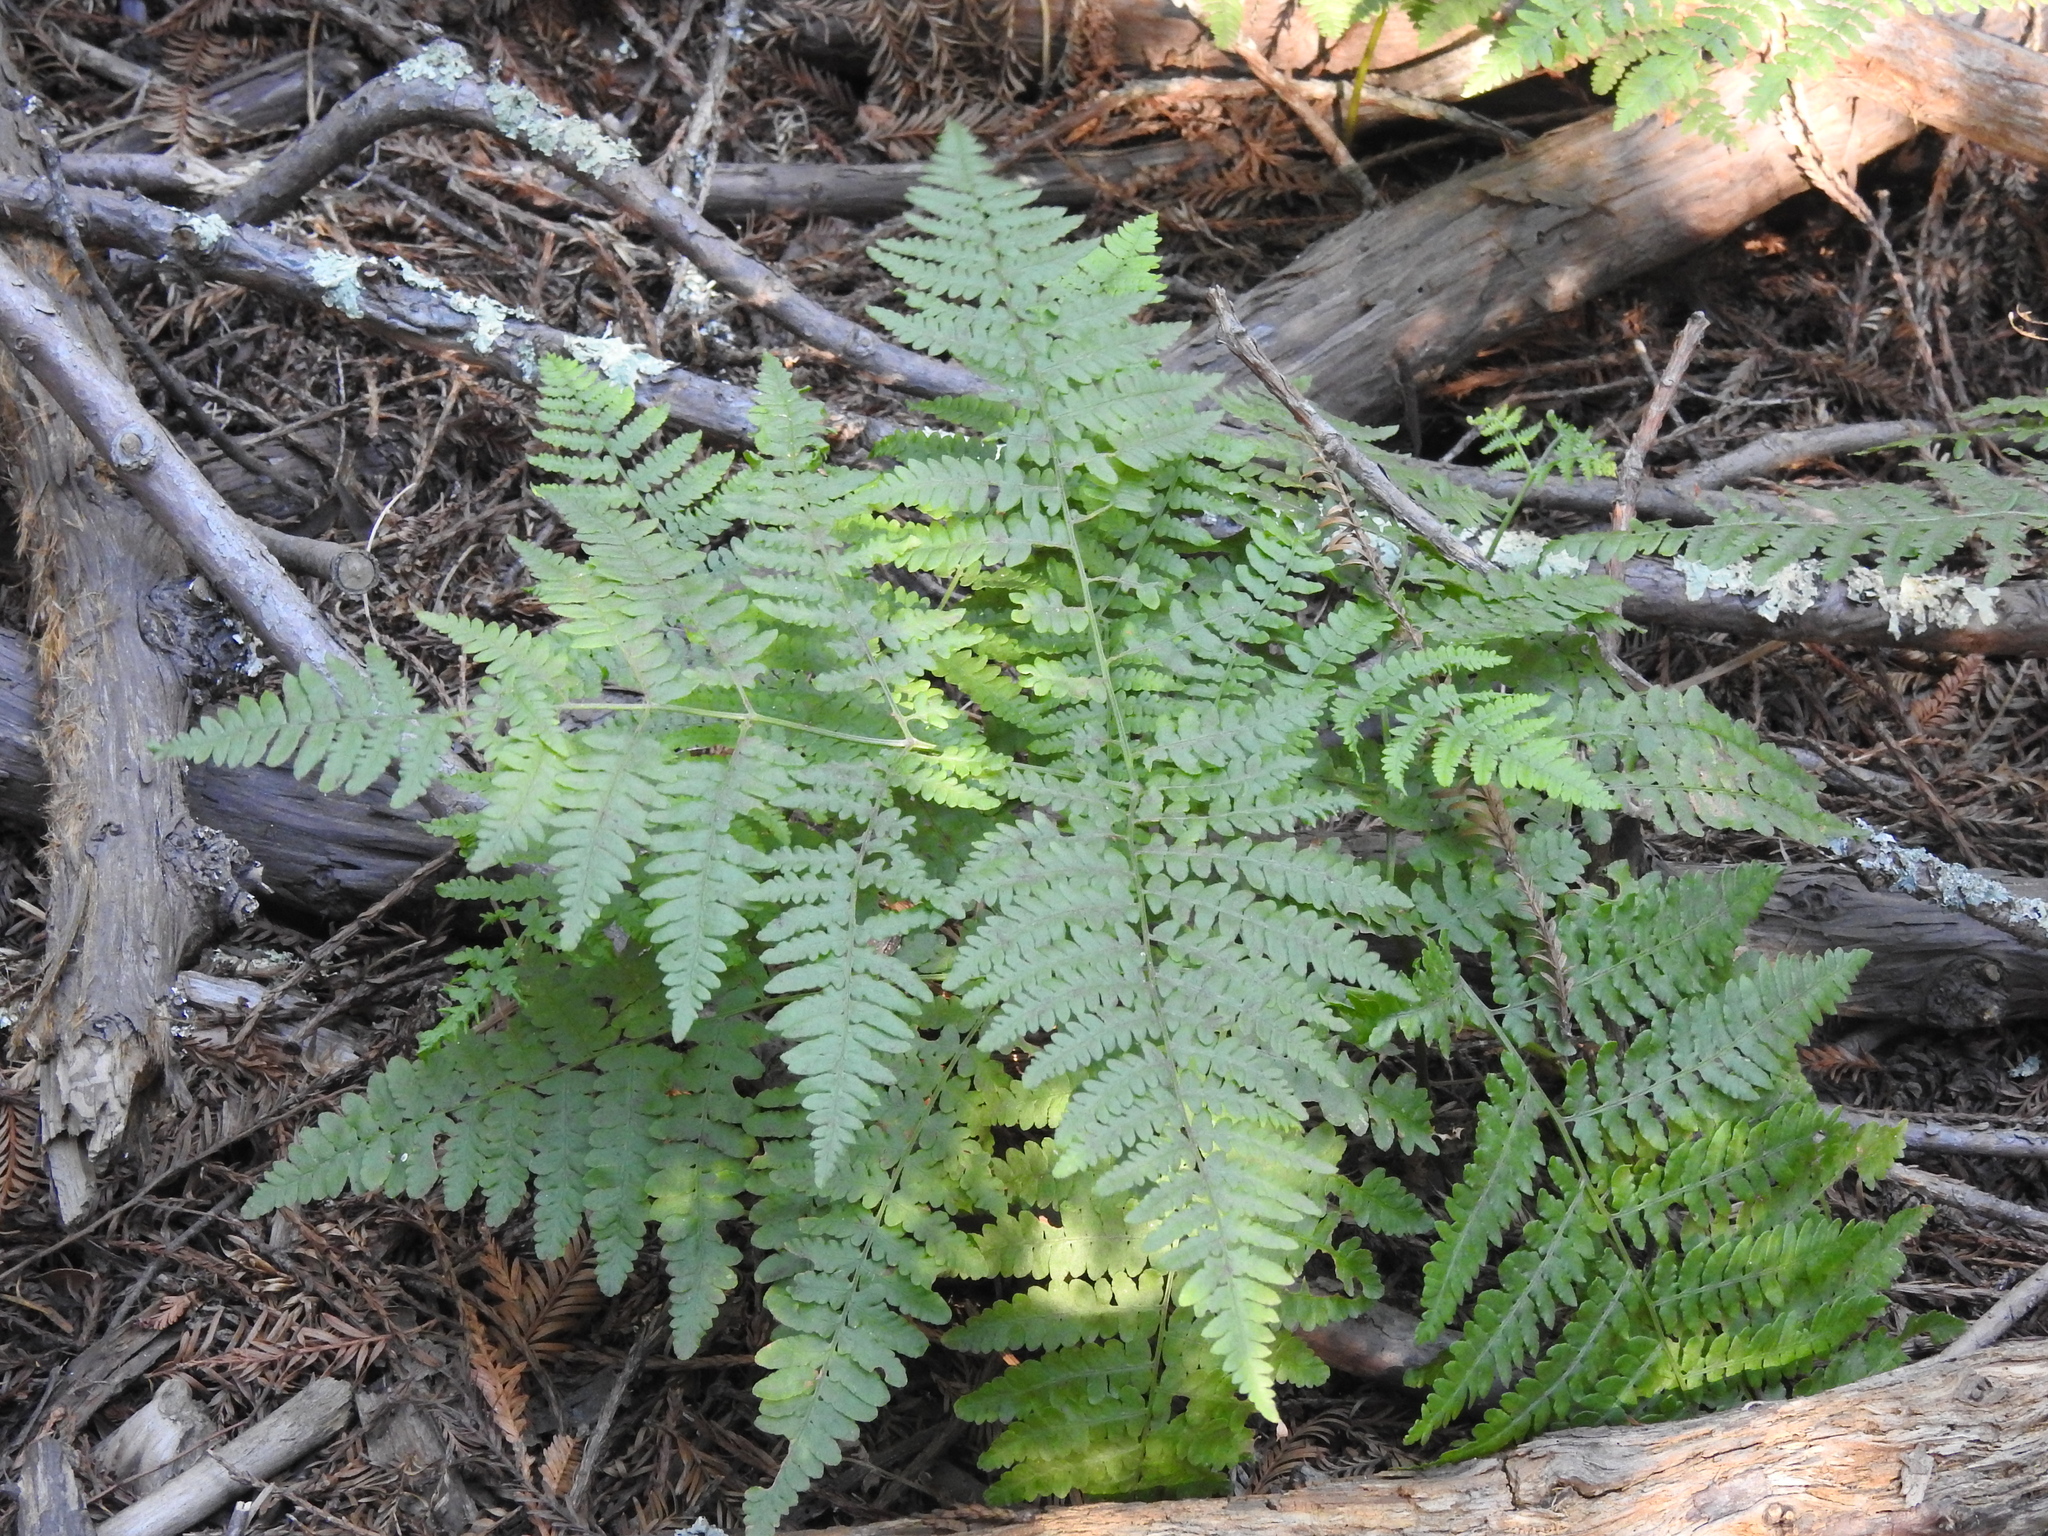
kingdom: Plantae
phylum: Tracheophyta
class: Polypodiopsida
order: Polypodiales
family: Dennstaedtiaceae
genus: Pteridium
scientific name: Pteridium aquilinum
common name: Bracken
